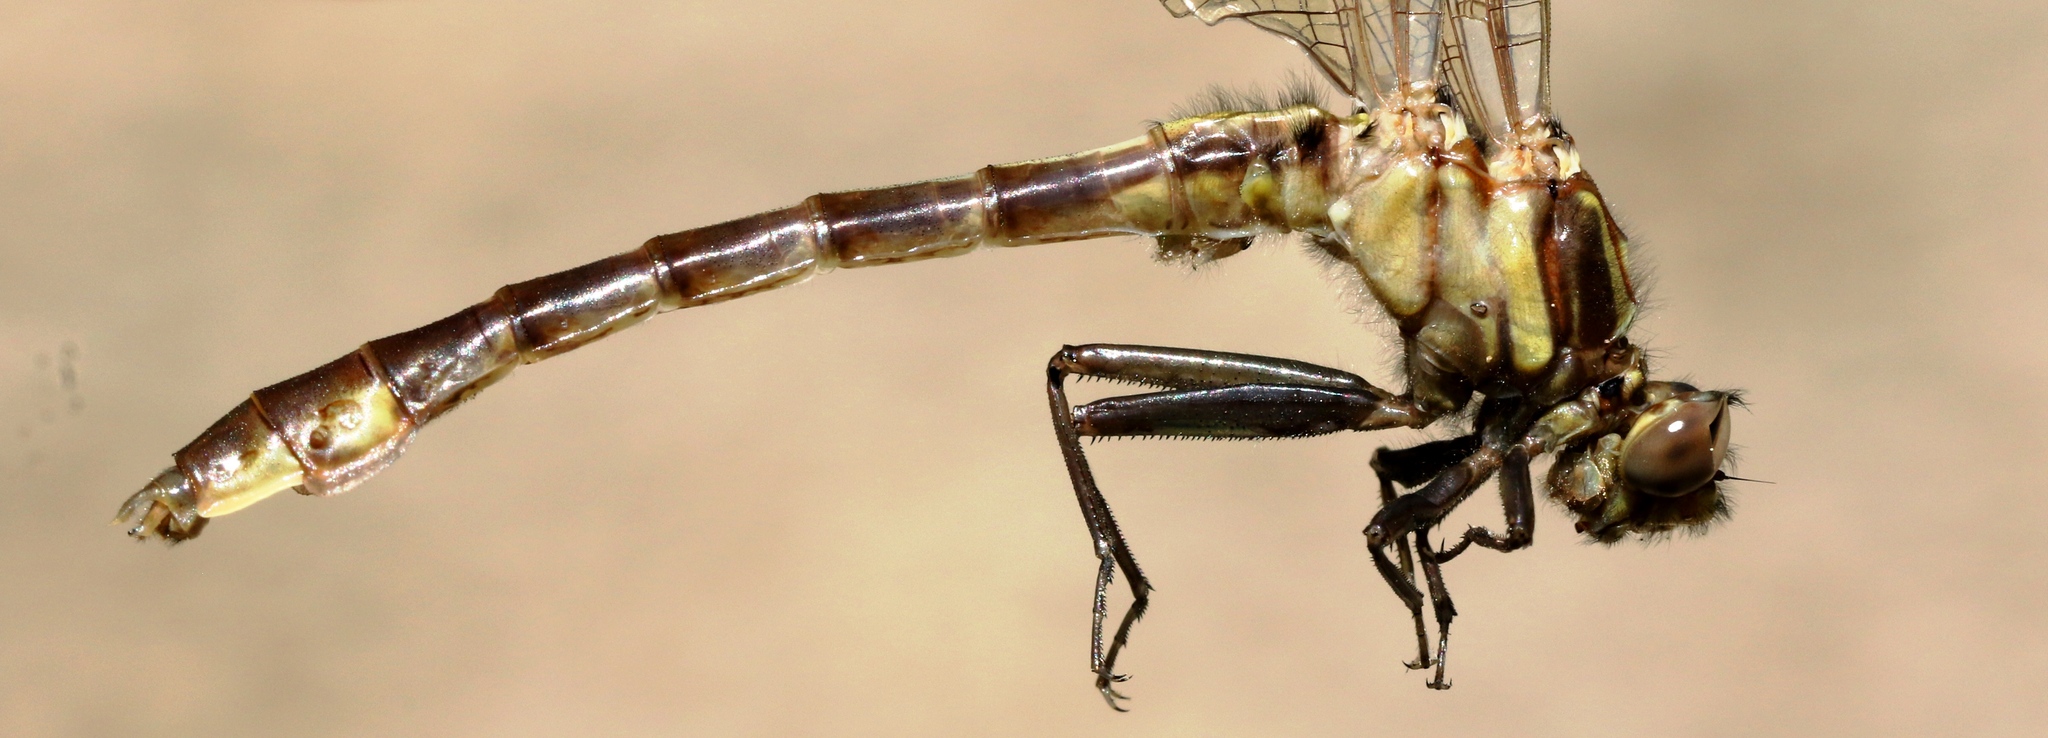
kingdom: Animalia
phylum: Arthropoda
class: Insecta
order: Odonata
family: Gomphidae
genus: Gomphurus
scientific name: Gomphurus ventricosus
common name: Skillet clubtail
